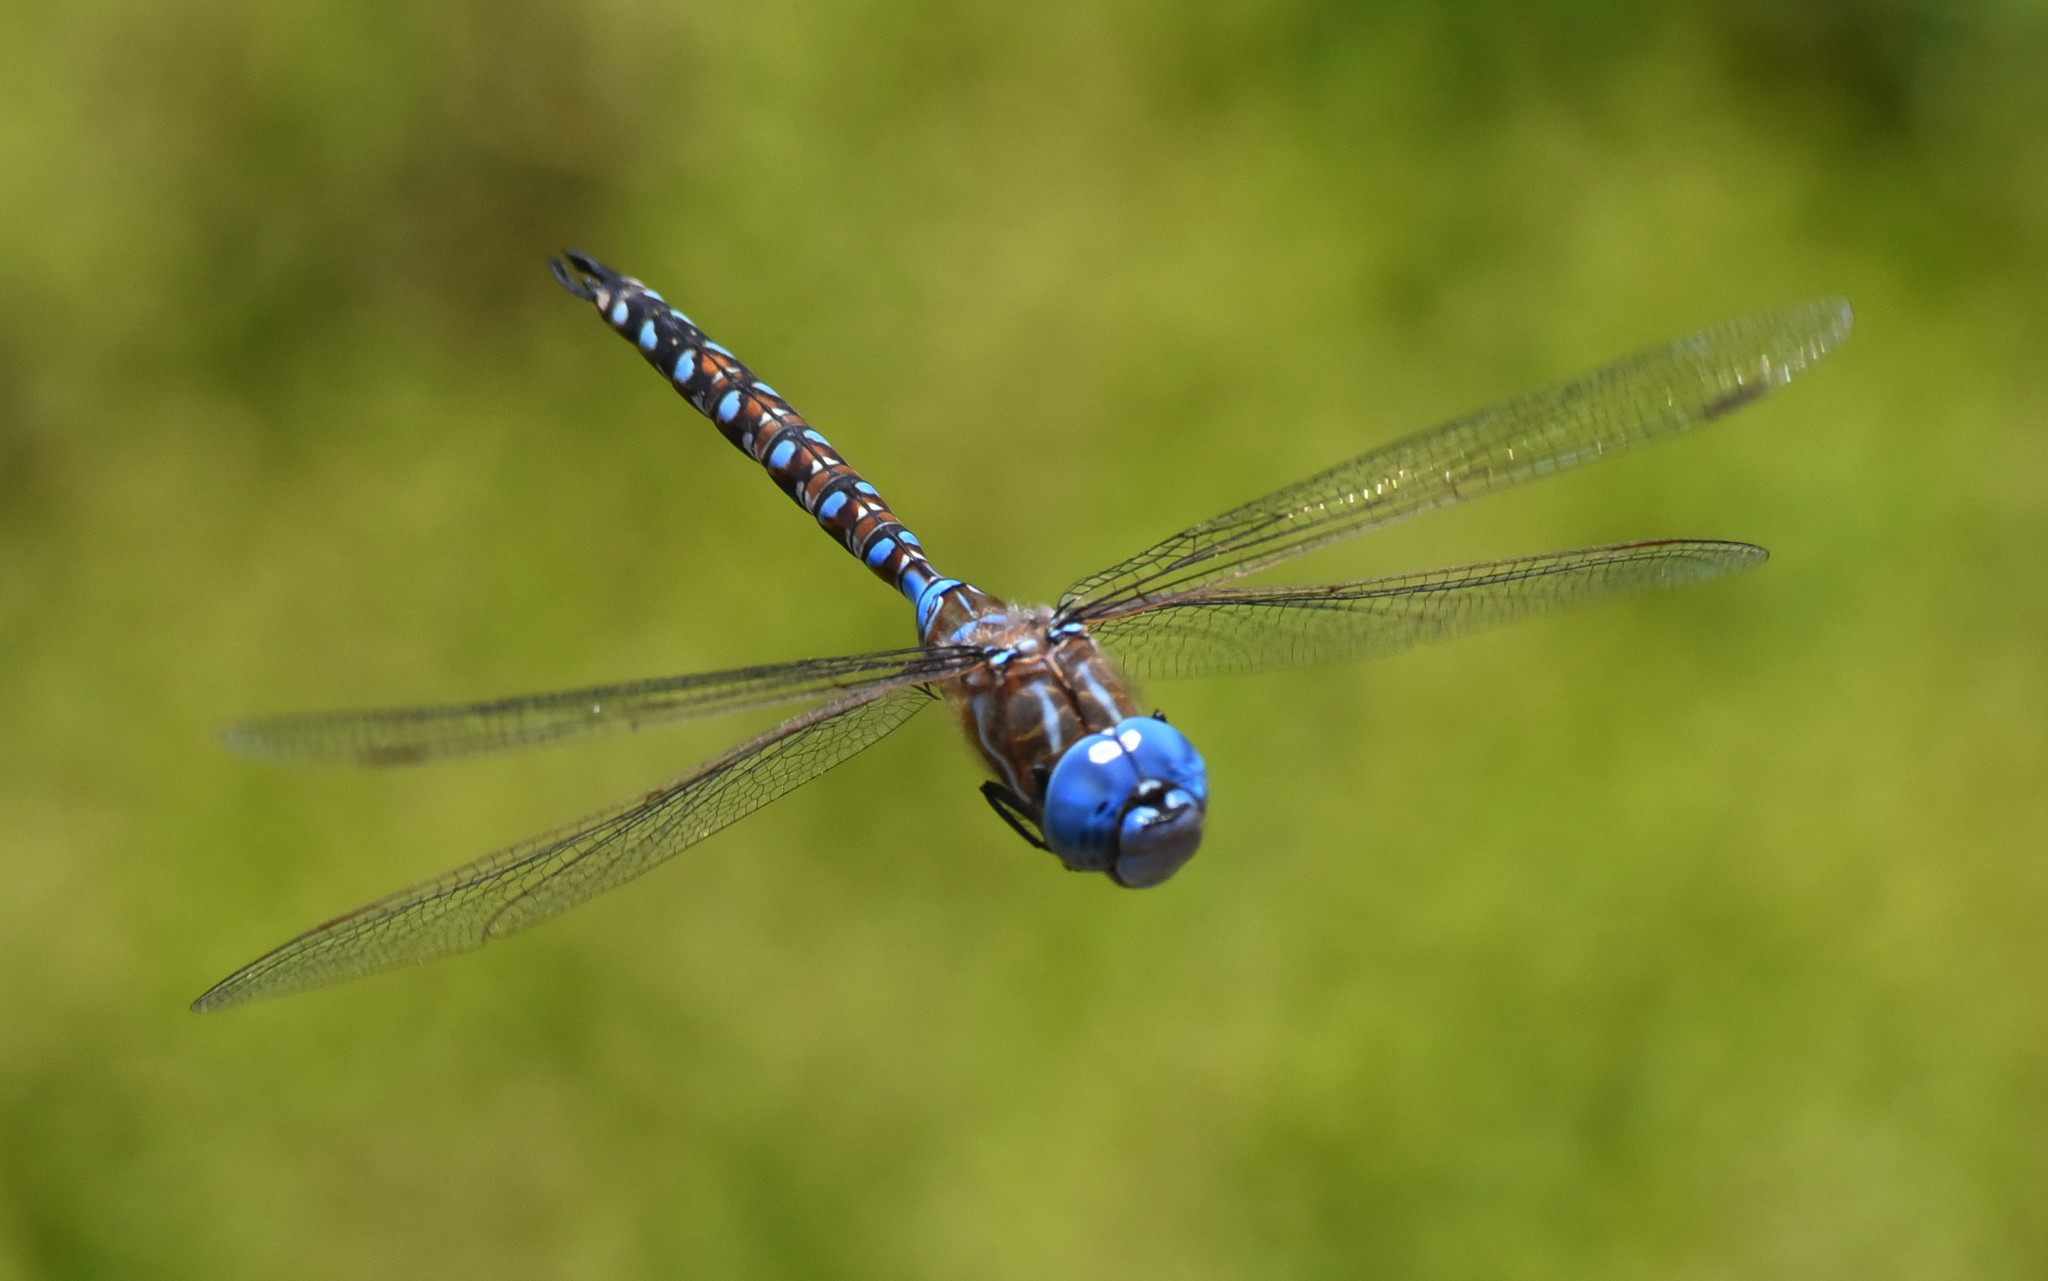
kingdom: Animalia
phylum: Arthropoda
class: Insecta
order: Odonata
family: Aeshnidae
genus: Rhionaeschna
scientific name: Rhionaeschna multicolor
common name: Blue-eyed darner
